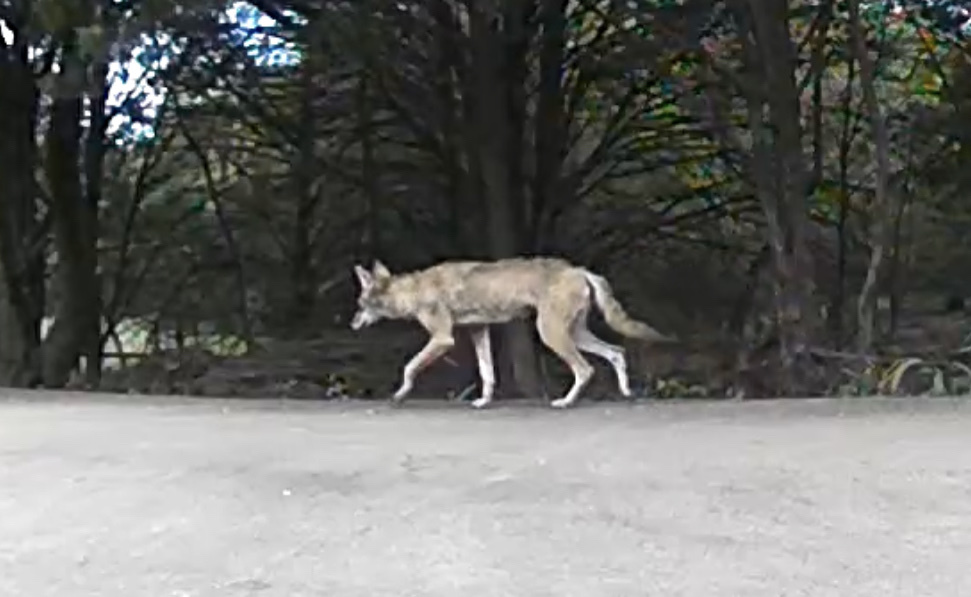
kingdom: Animalia
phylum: Chordata
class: Mammalia
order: Carnivora
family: Canidae
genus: Canis
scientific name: Canis latrans
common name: Coyote
